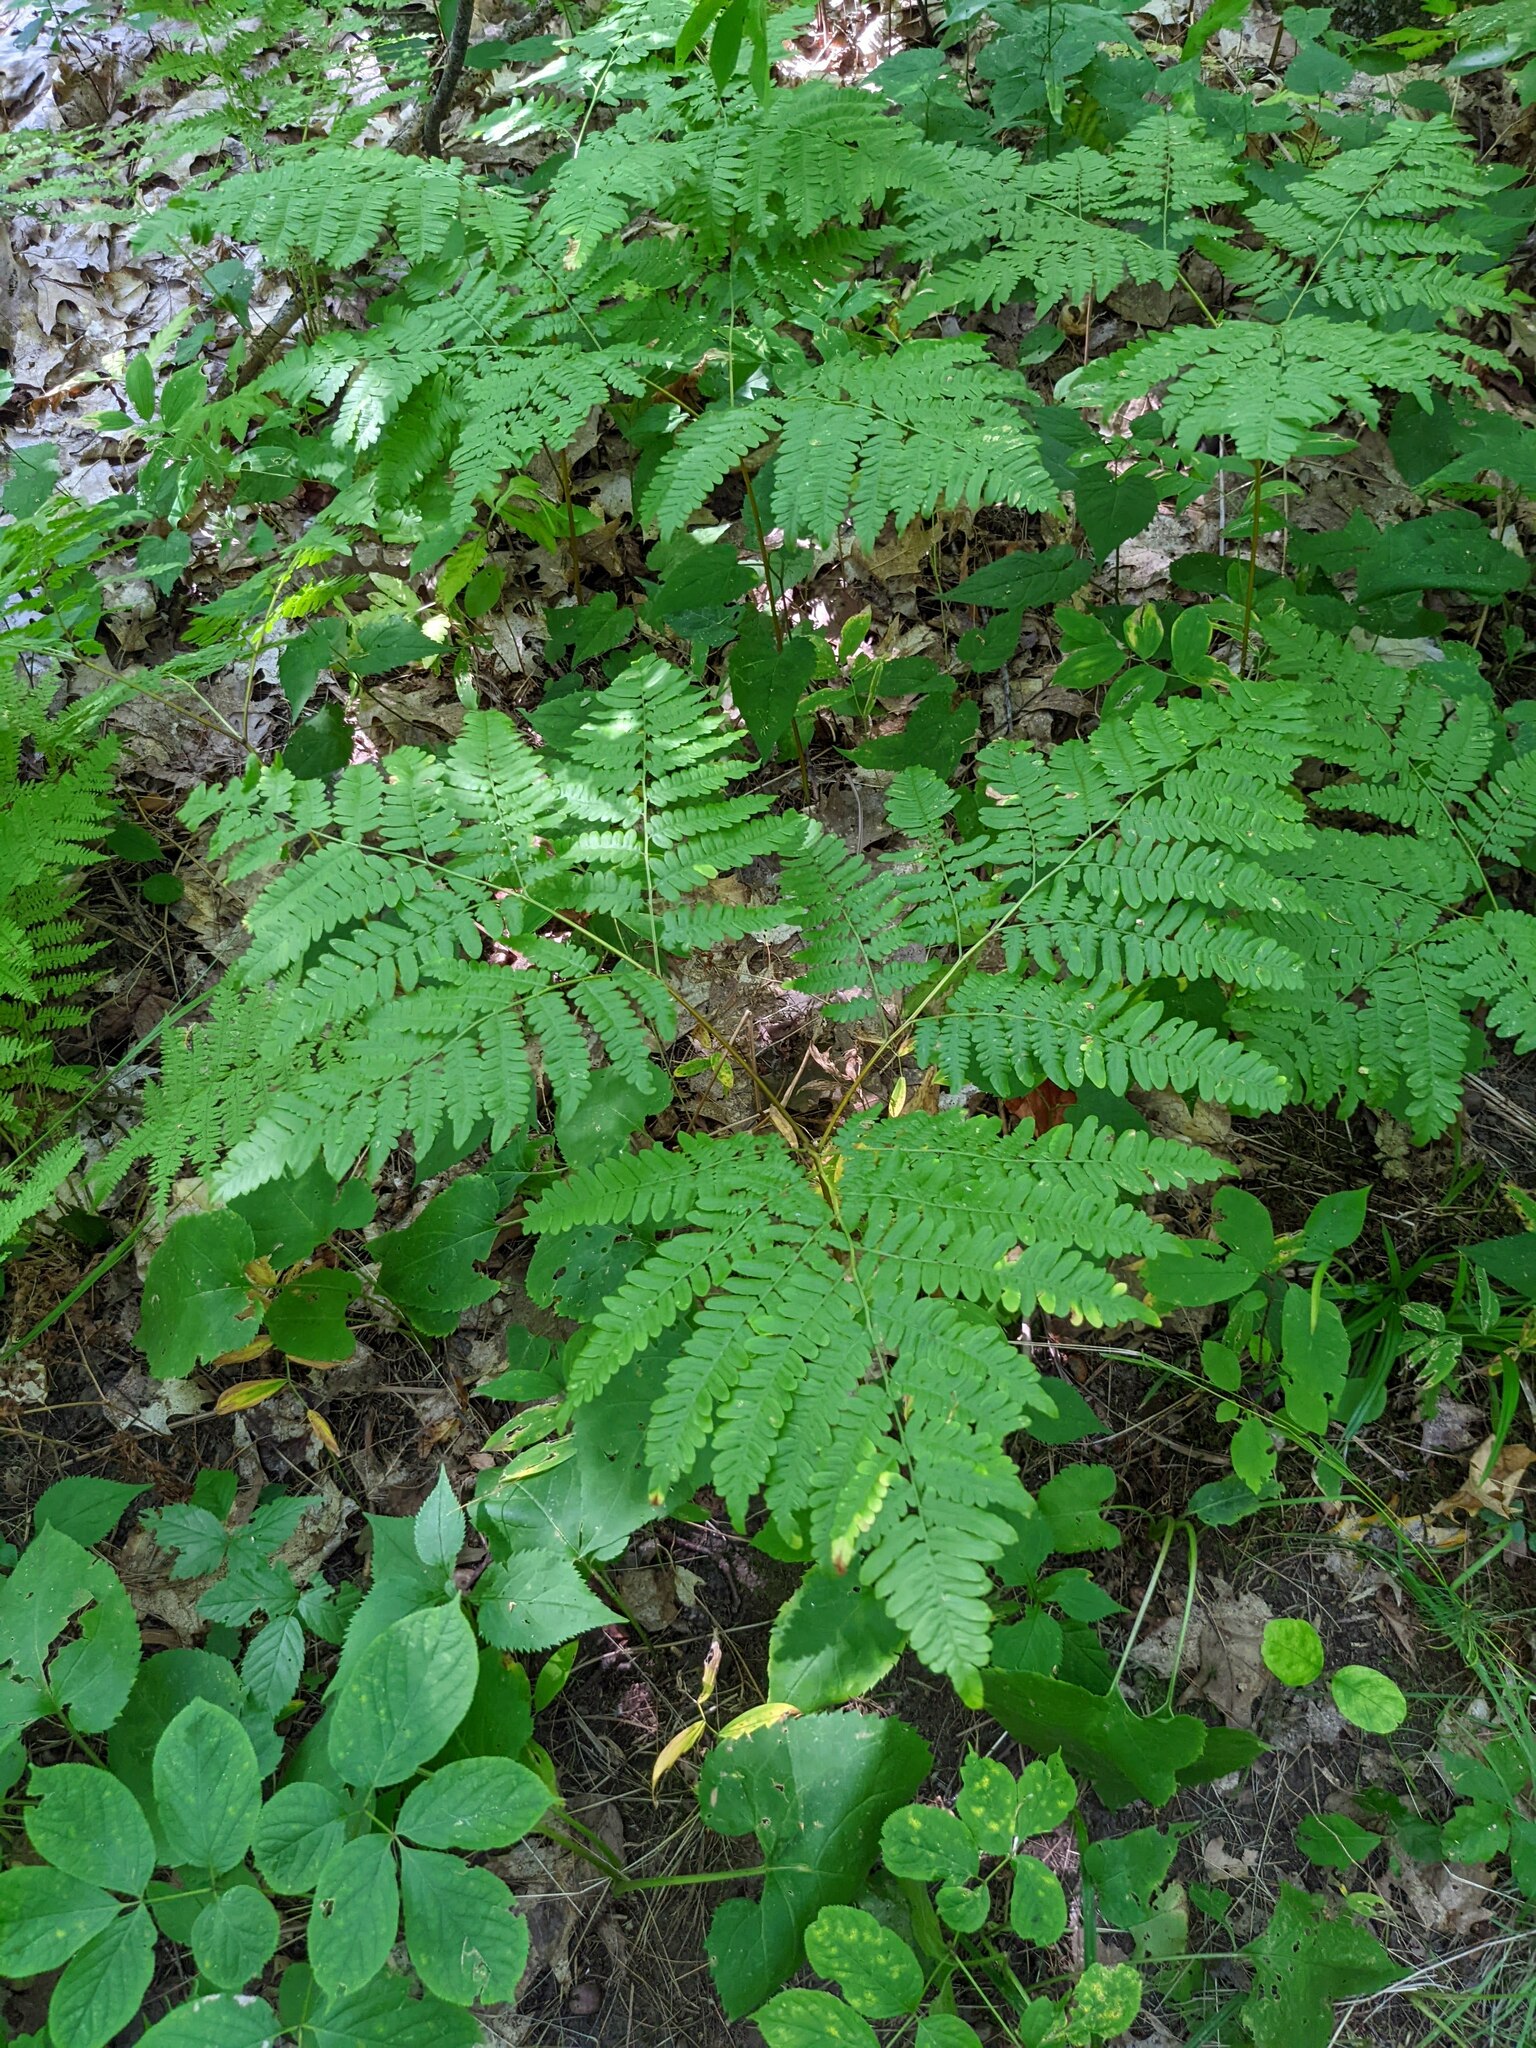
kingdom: Plantae
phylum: Tracheophyta
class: Polypodiopsida
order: Polypodiales
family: Dennstaedtiaceae
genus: Pteridium
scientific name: Pteridium aquilinum
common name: Bracken
